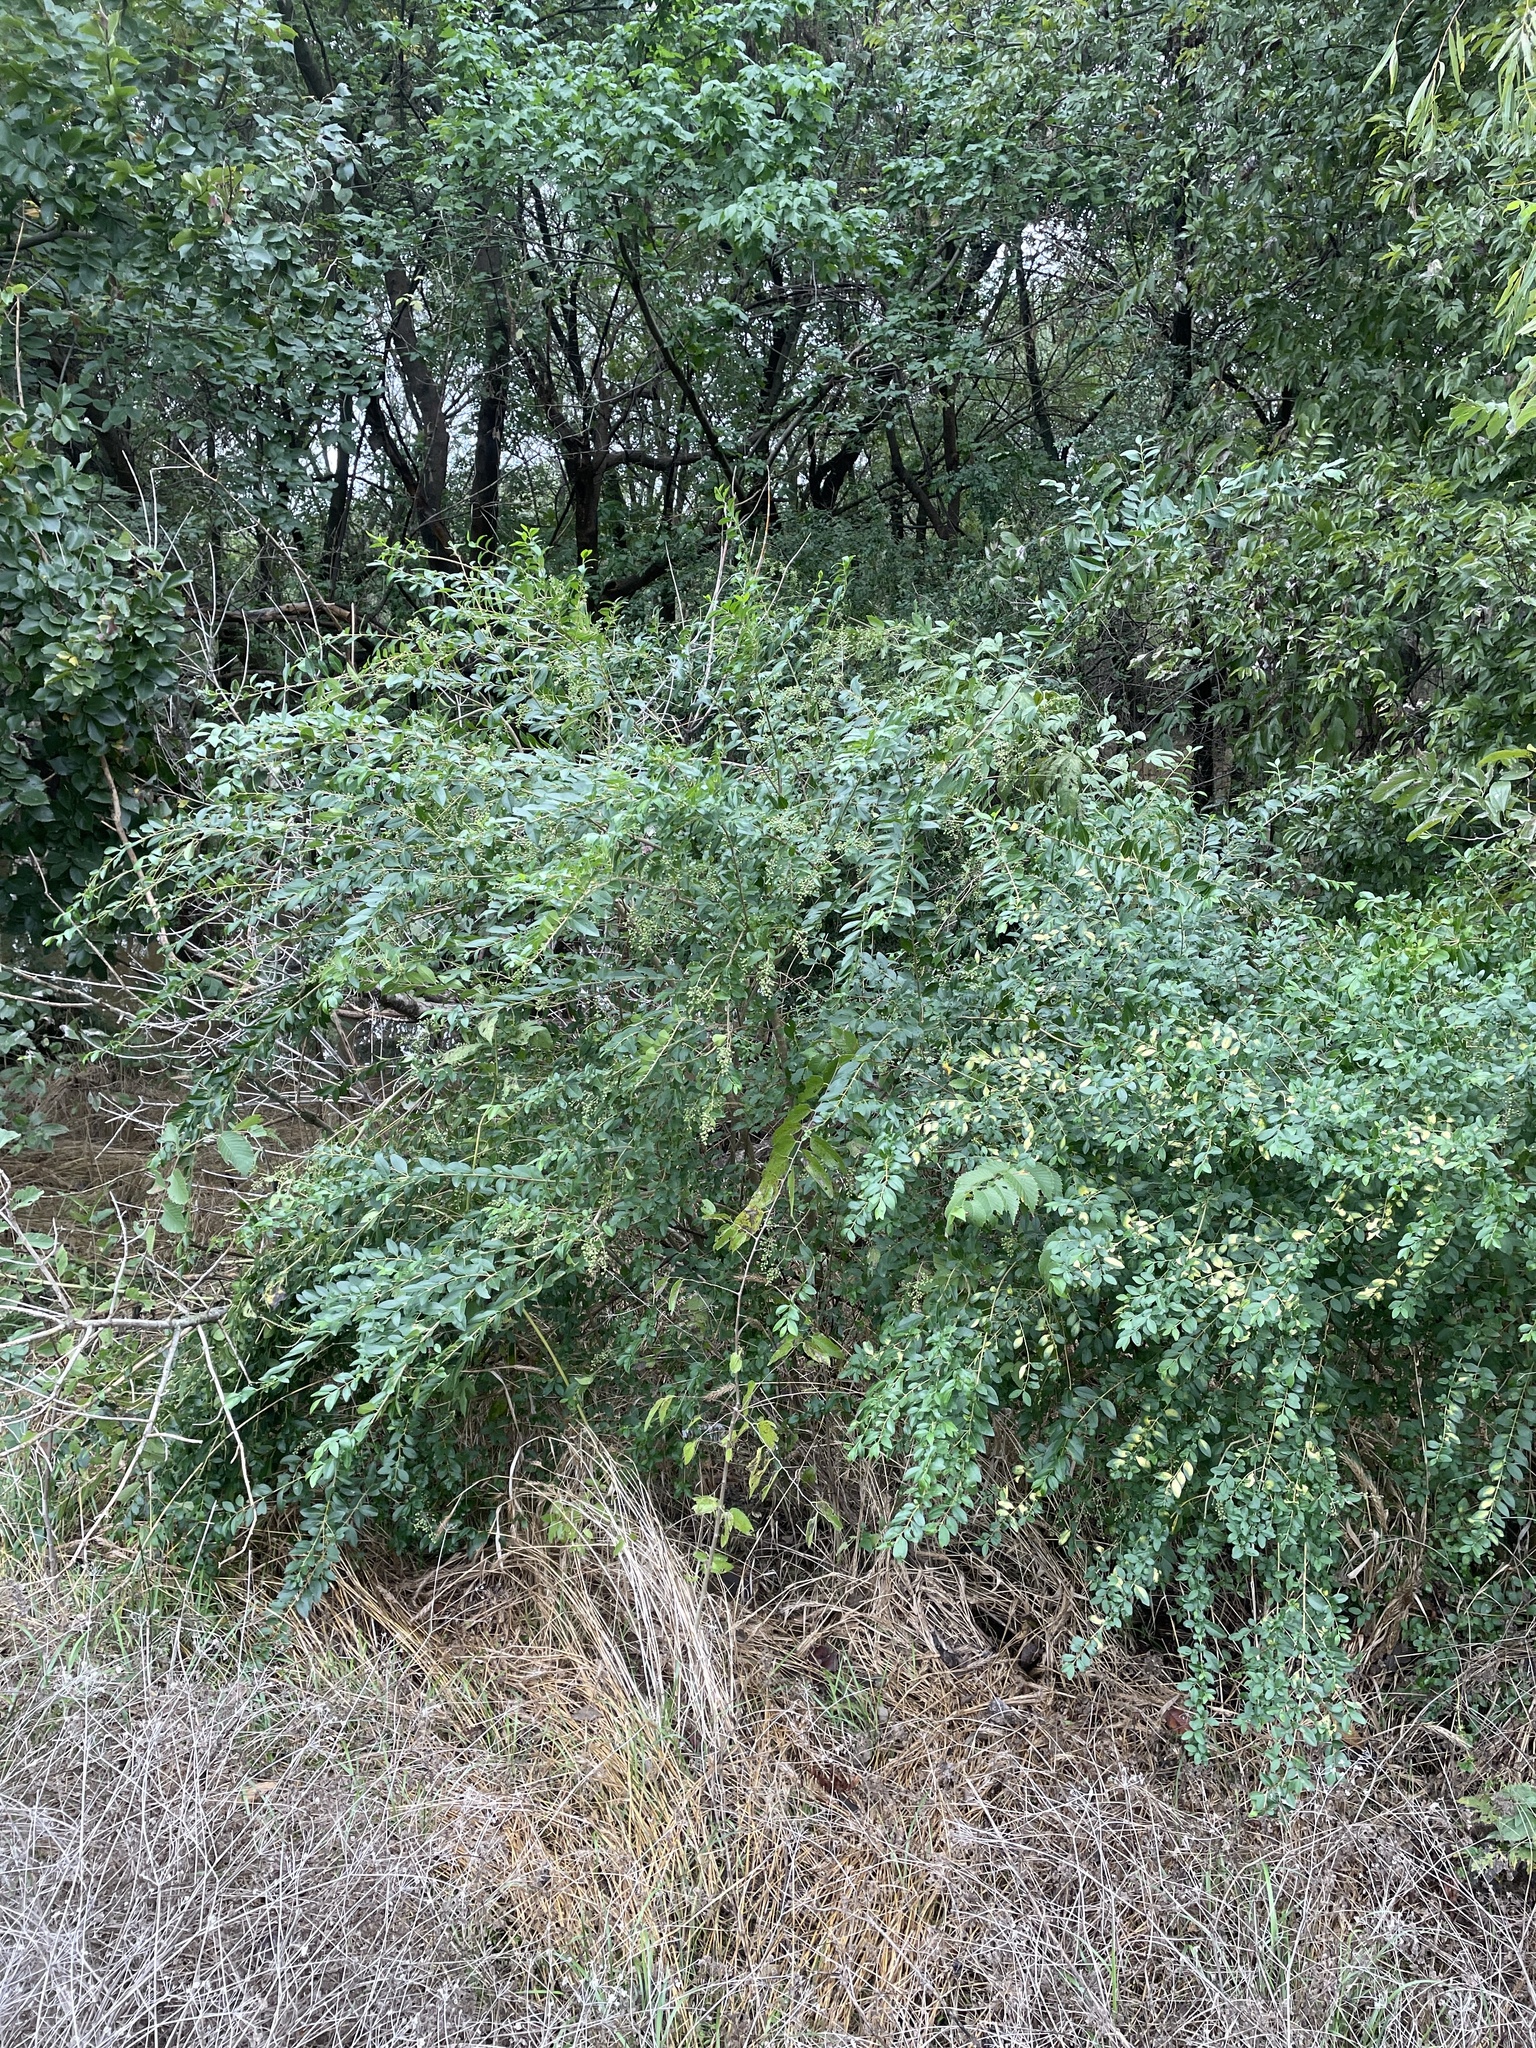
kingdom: Plantae
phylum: Tracheophyta
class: Magnoliopsida
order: Lamiales
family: Oleaceae
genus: Ligustrum
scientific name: Ligustrum sinense
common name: Chinese privet
